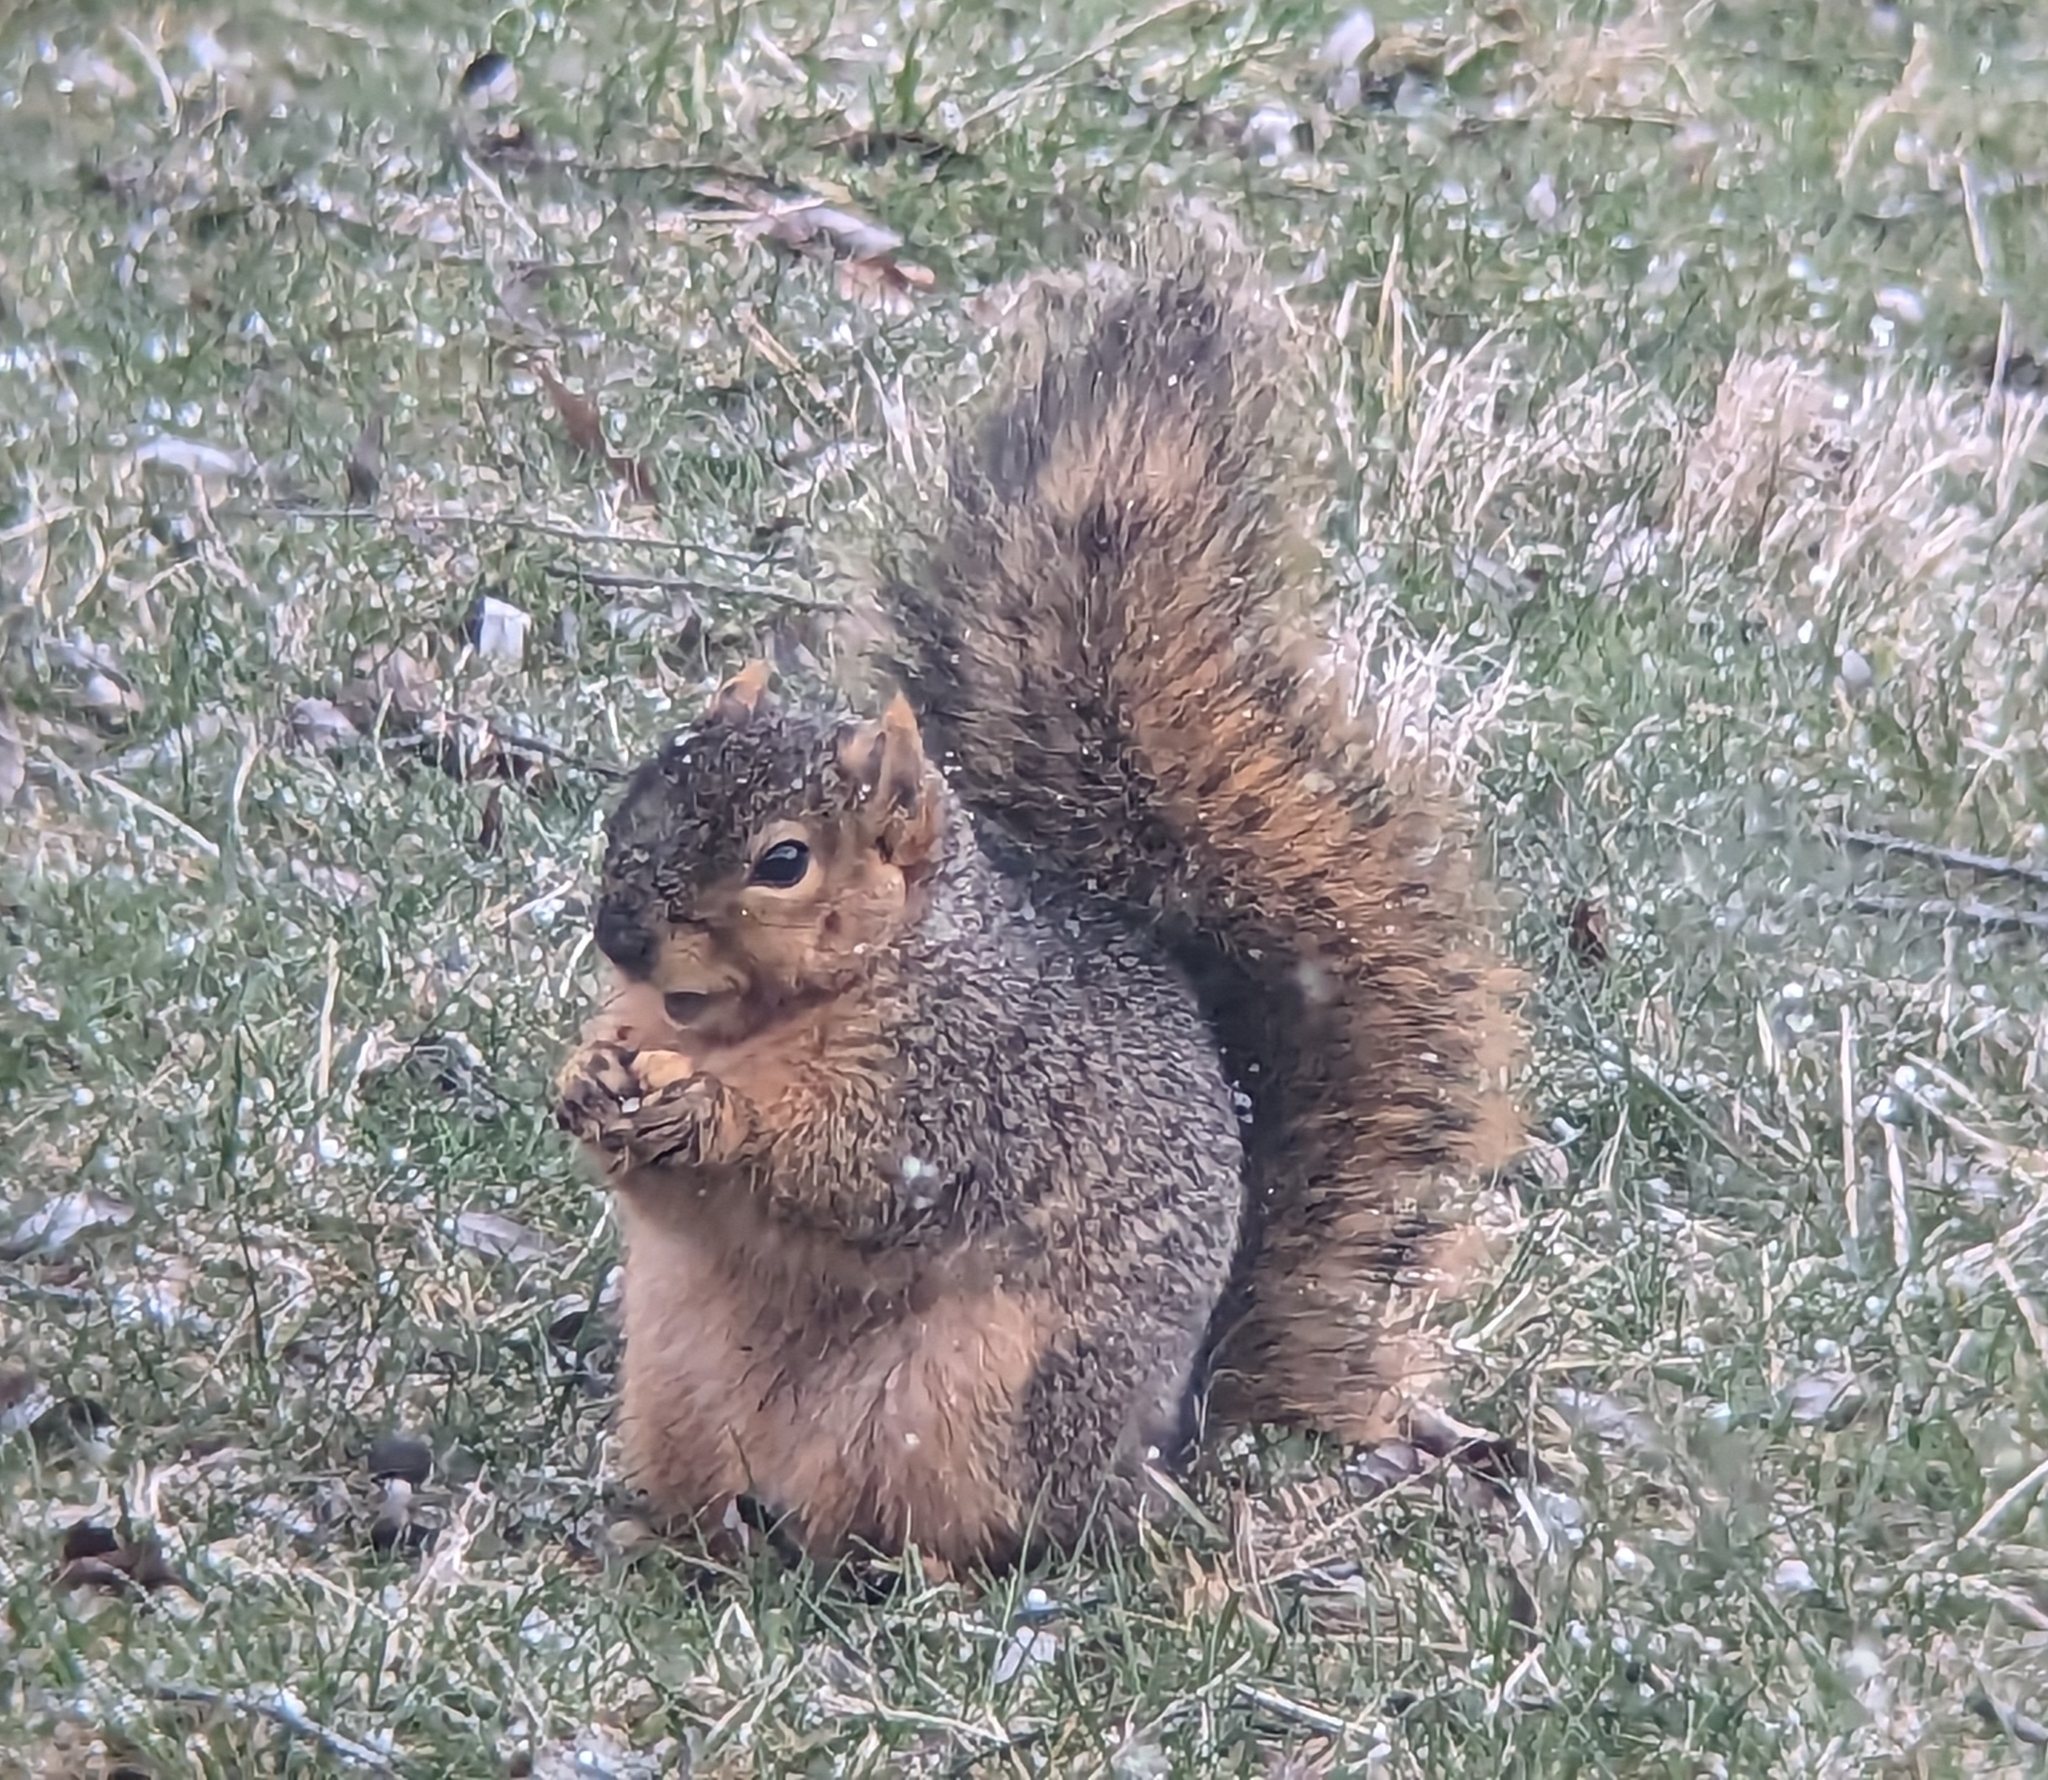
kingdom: Animalia
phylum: Chordata
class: Mammalia
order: Rodentia
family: Sciuridae
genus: Sciurus
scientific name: Sciurus niger
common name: Fox squirrel
